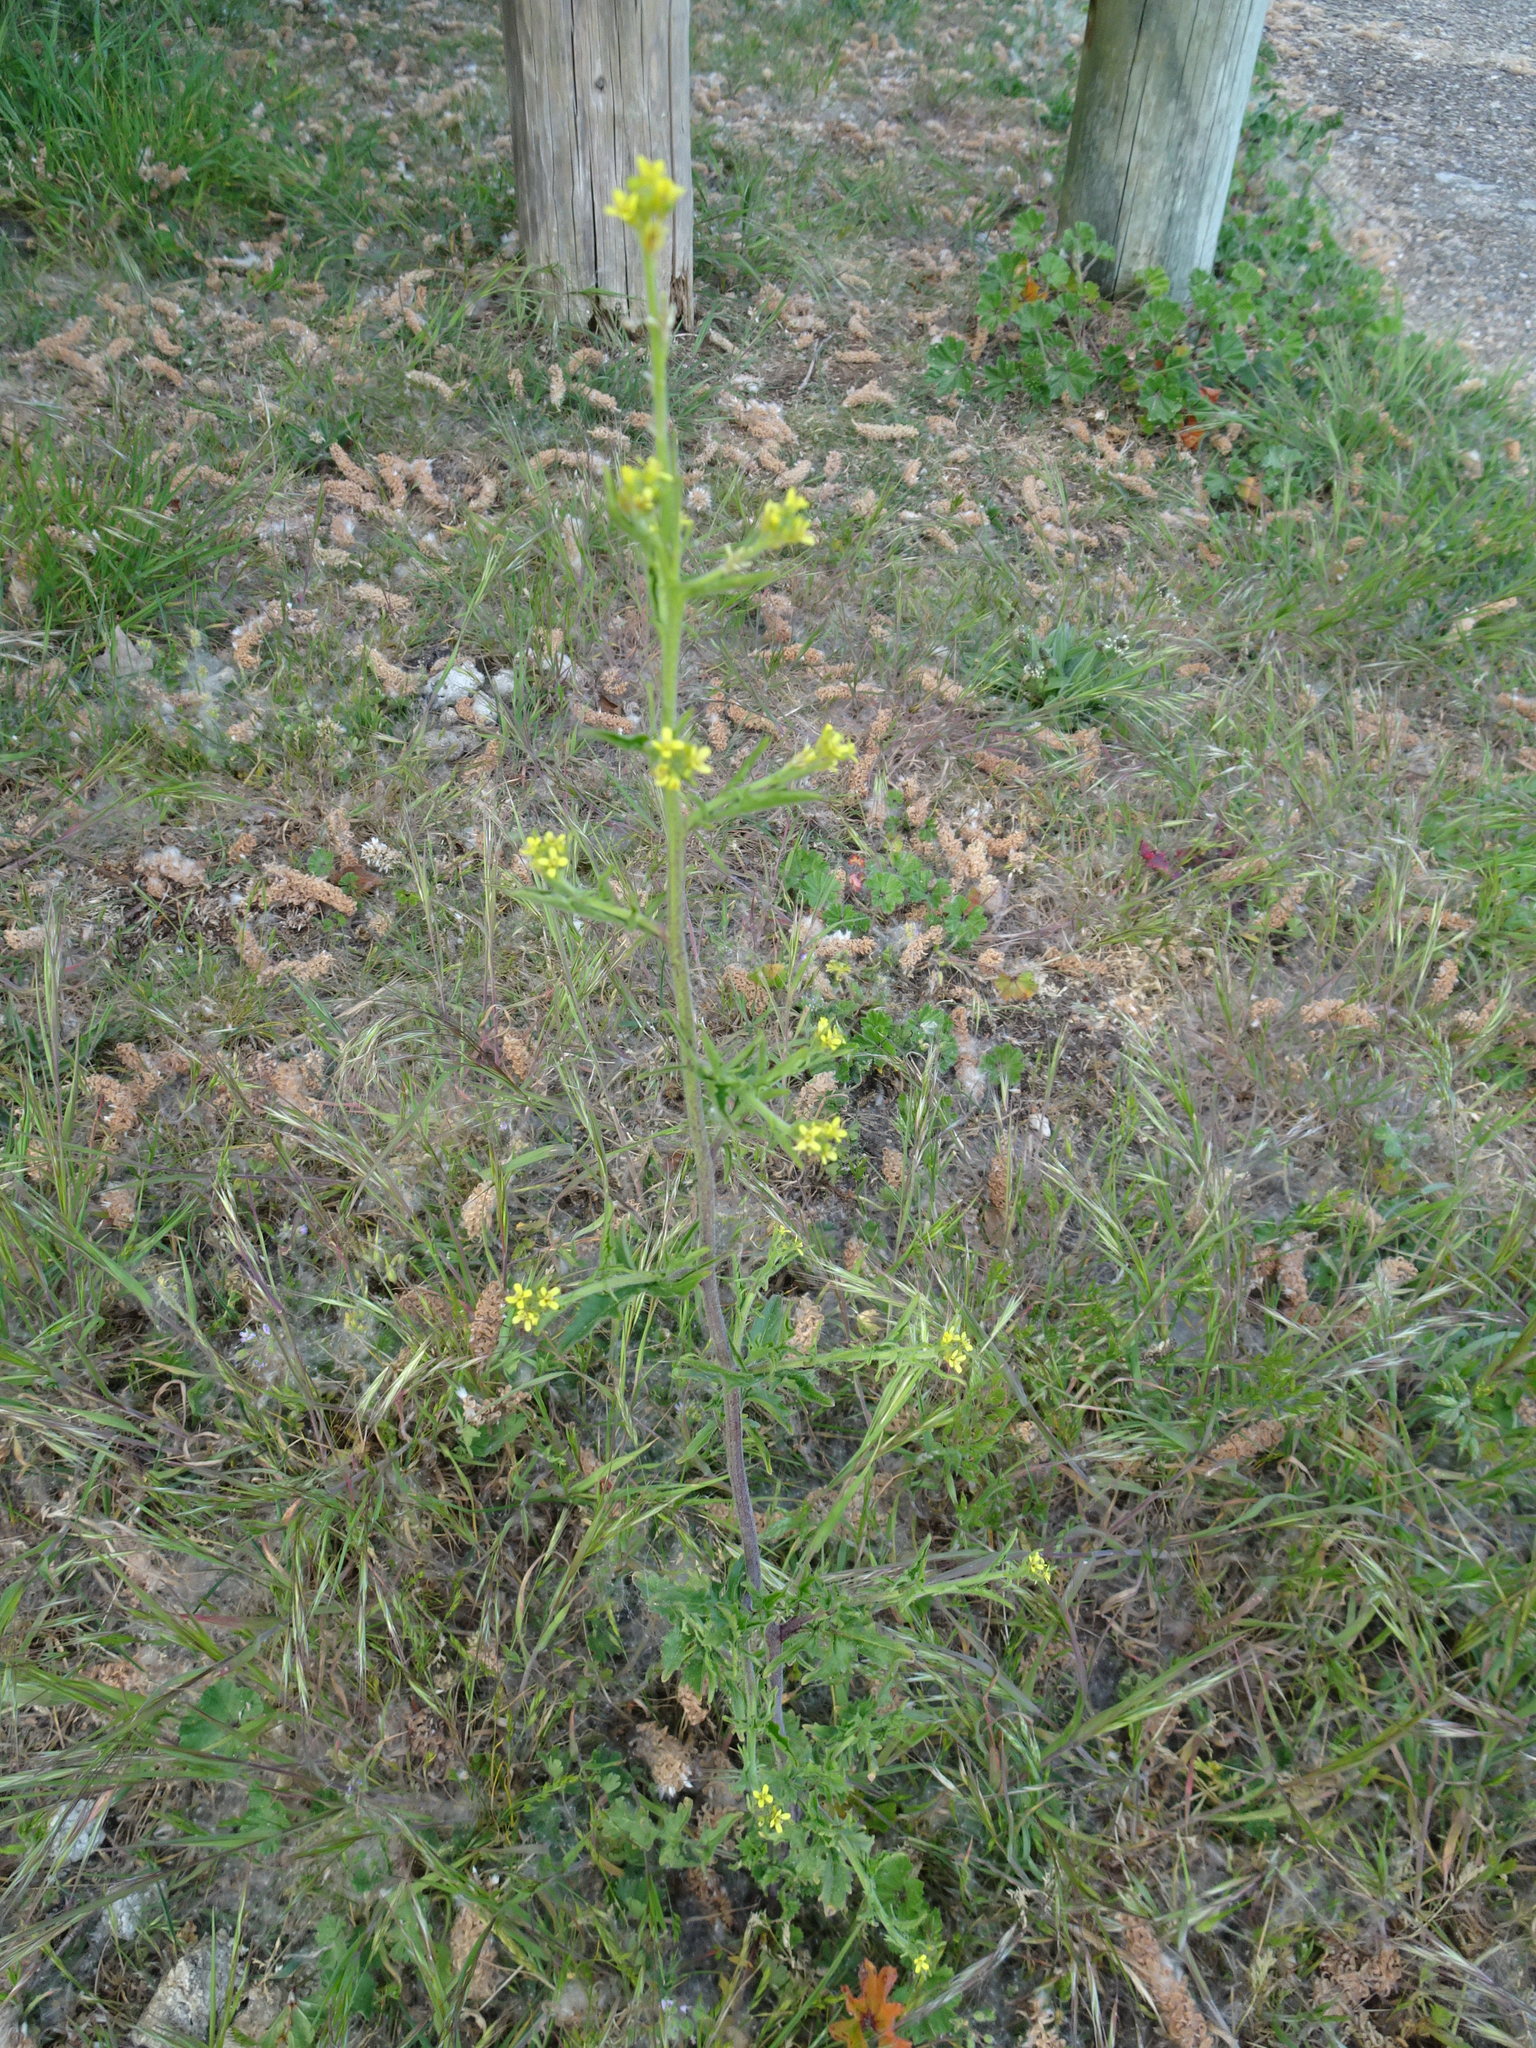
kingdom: Plantae
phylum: Tracheophyta
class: Magnoliopsida
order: Brassicales
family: Brassicaceae
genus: Sisymbrium
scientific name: Sisymbrium officinale
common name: Hedge mustard
